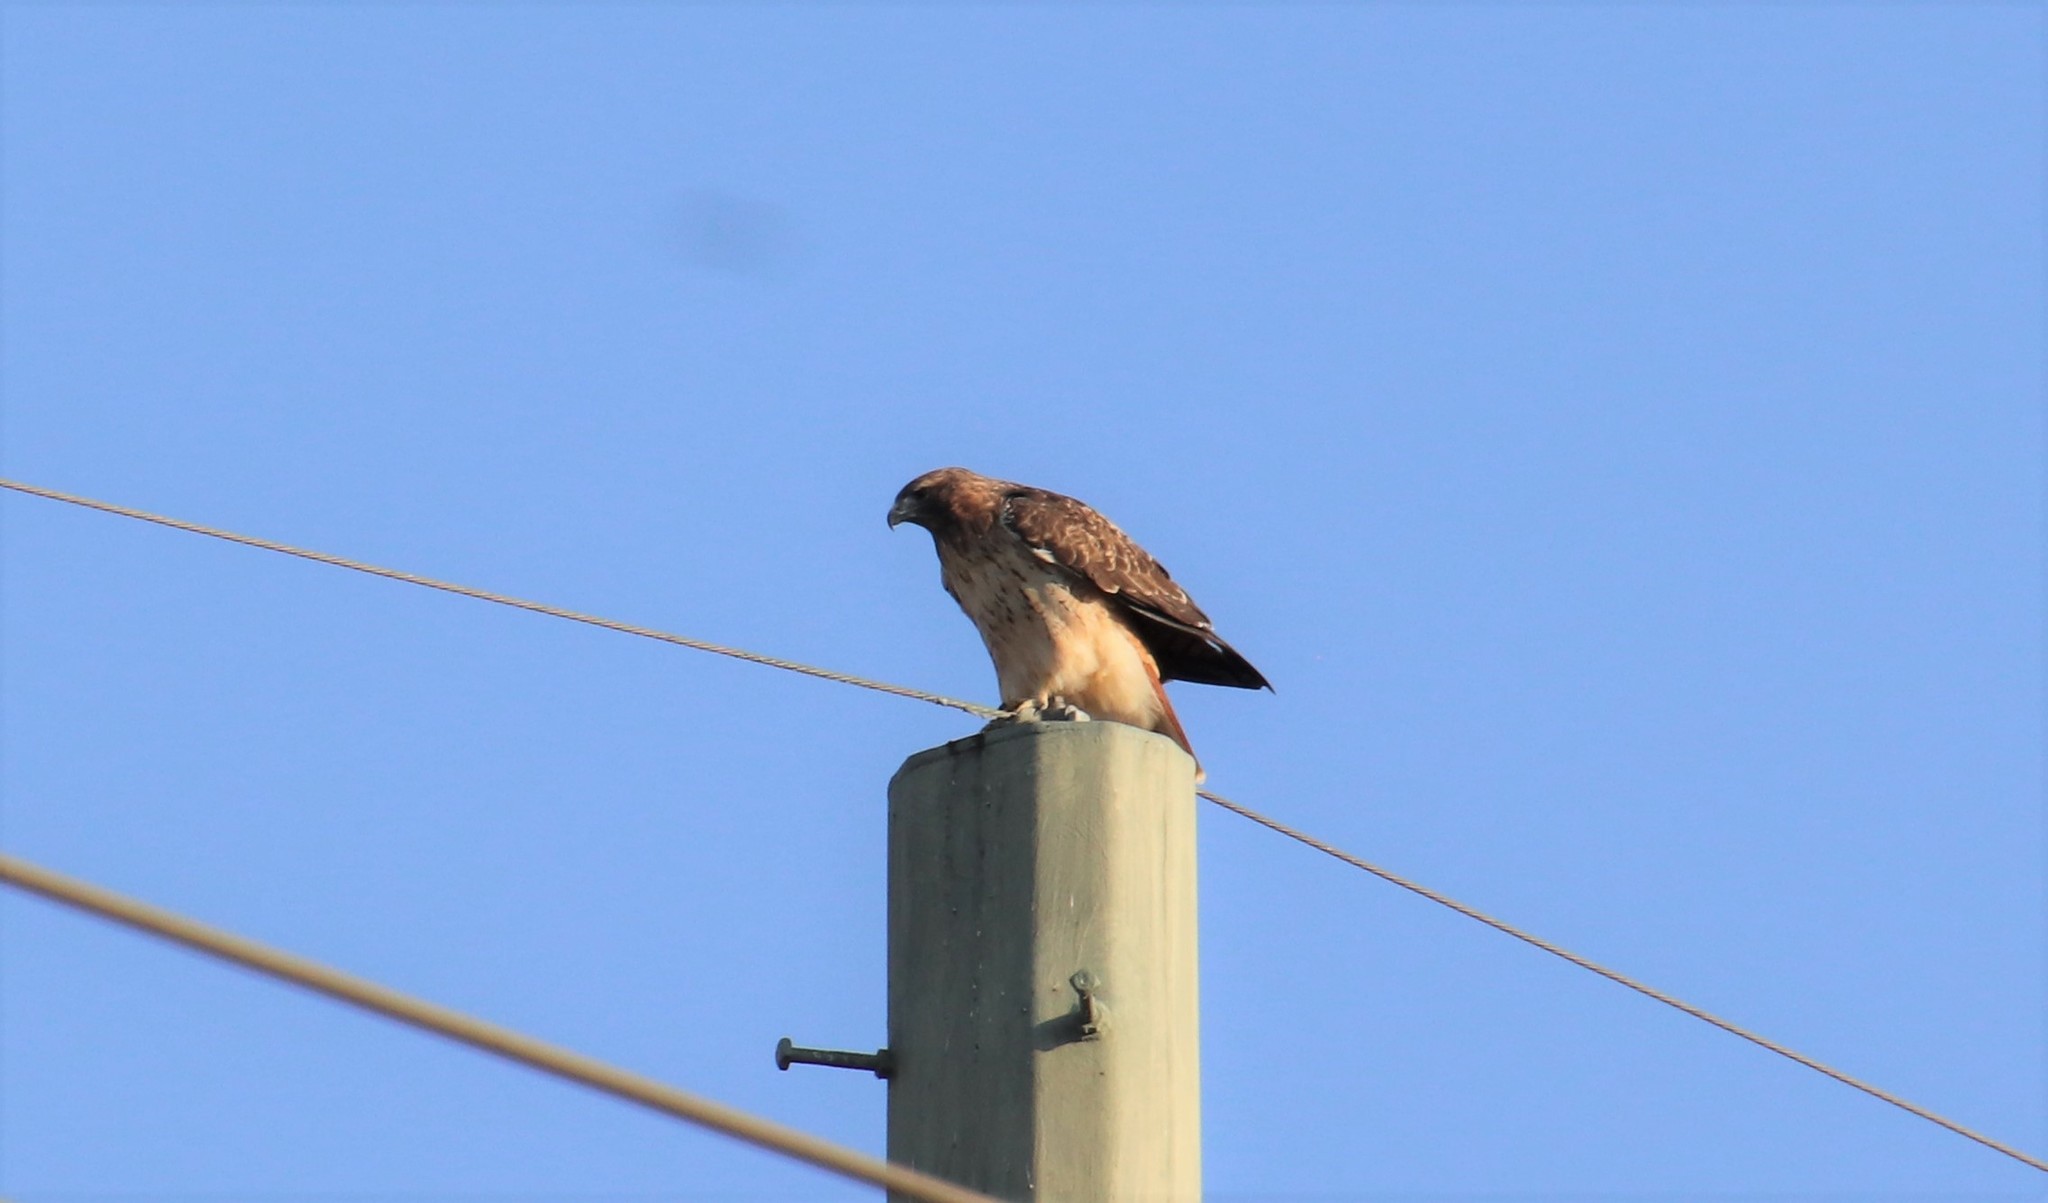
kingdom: Animalia
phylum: Chordata
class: Aves
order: Accipitriformes
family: Accipitridae
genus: Buteo
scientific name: Buteo jamaicensis
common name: Red-tailed hawk
